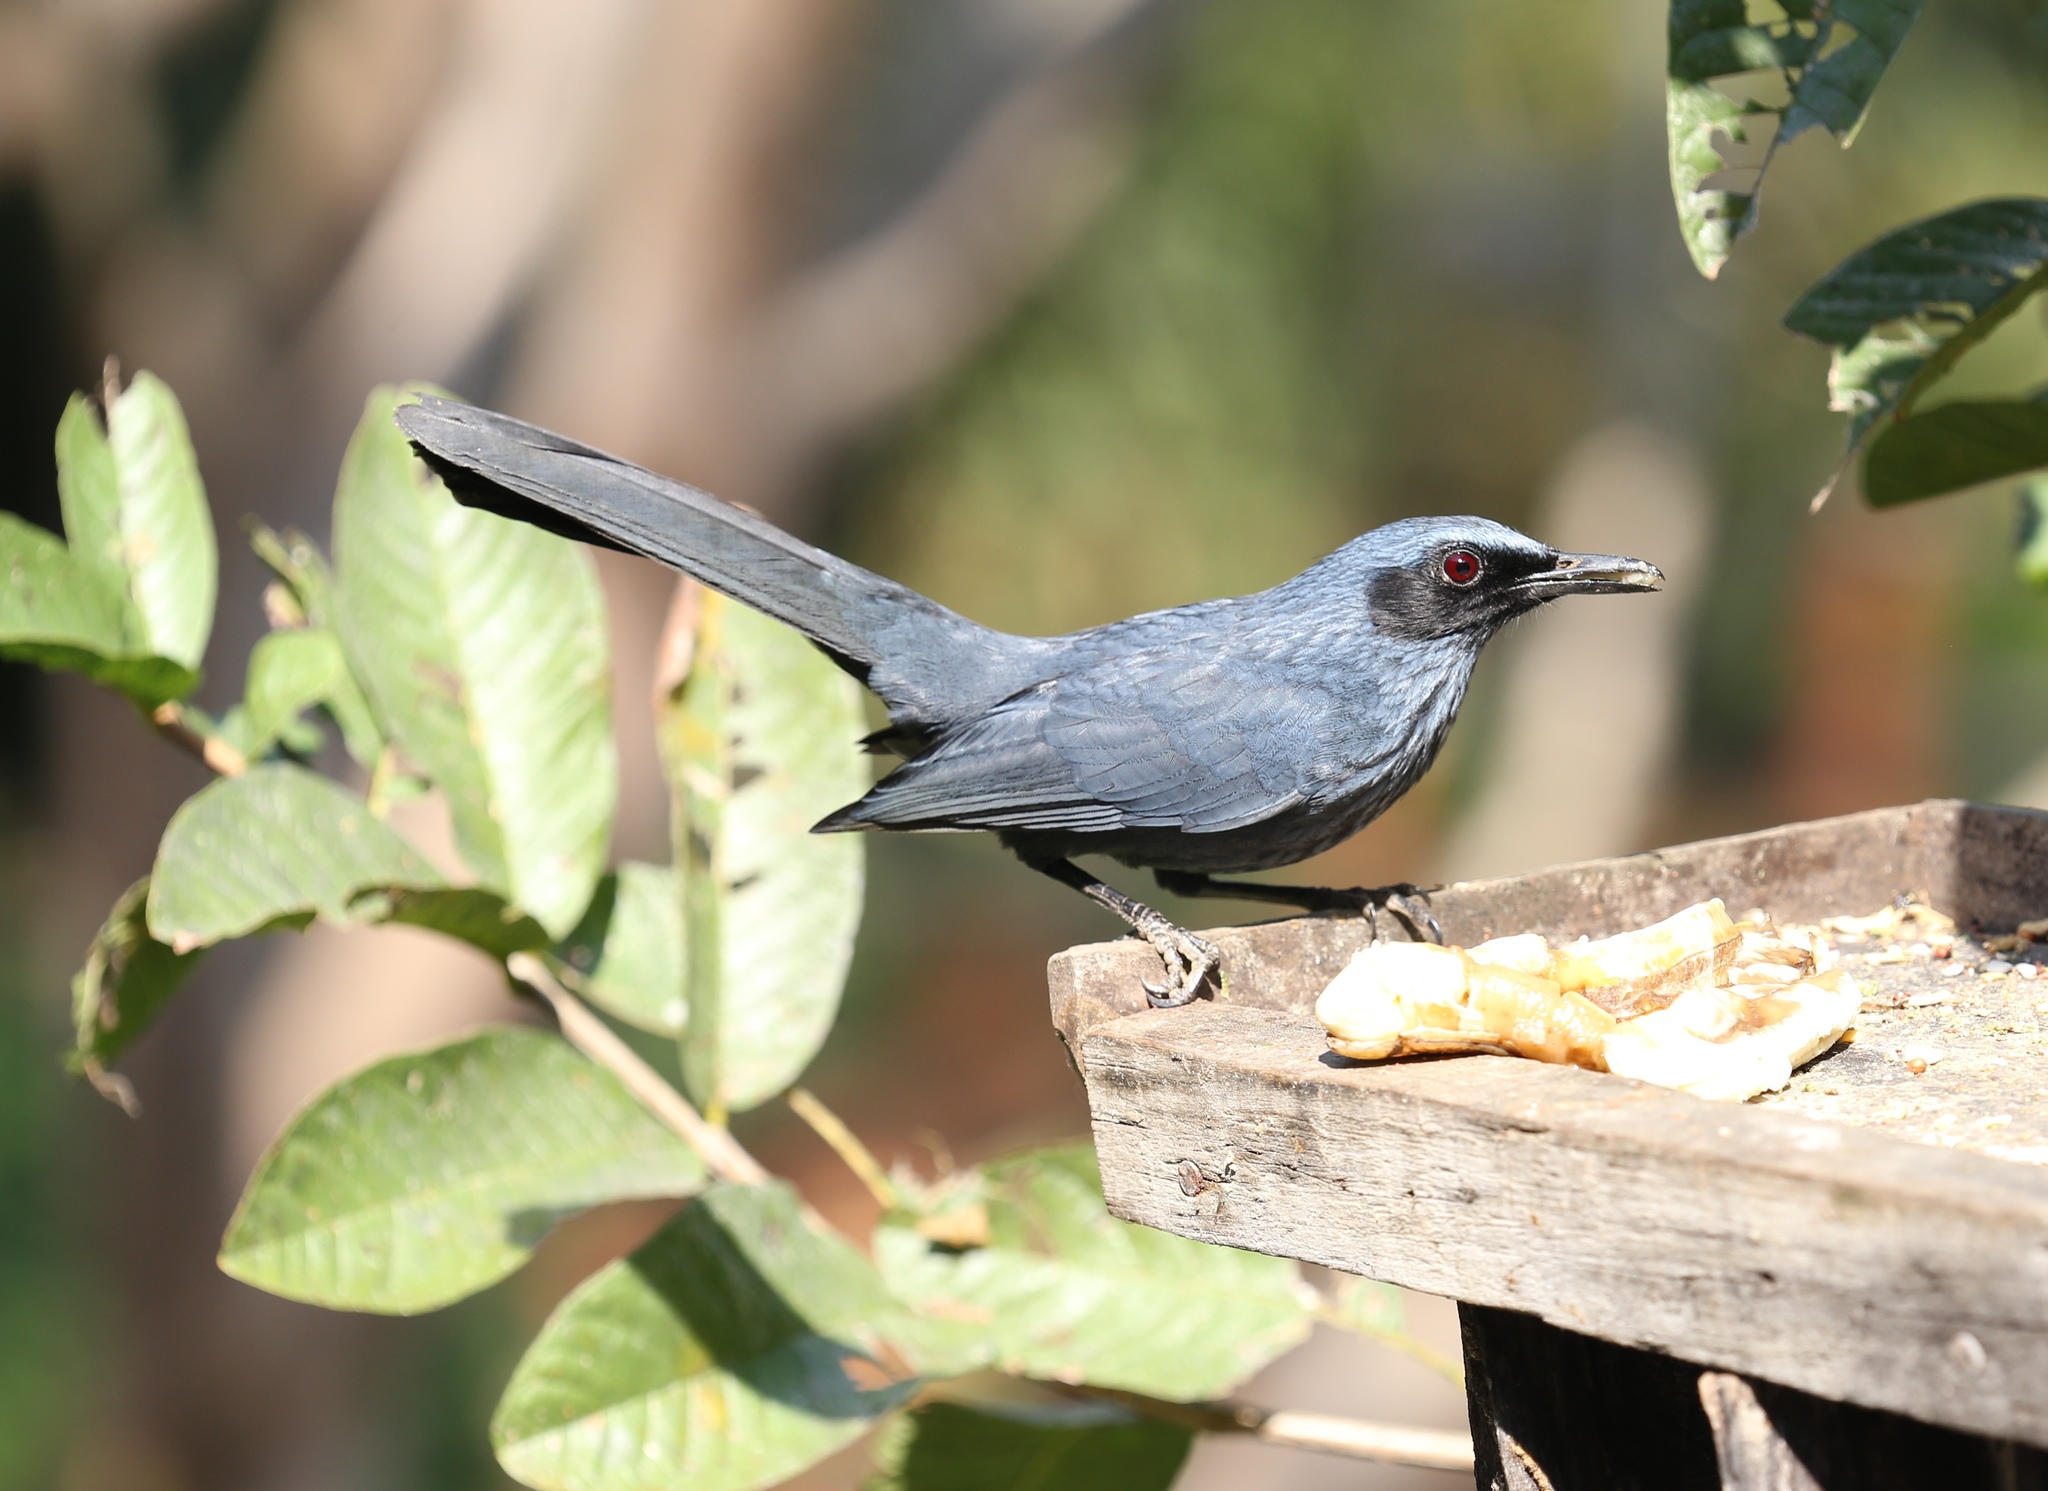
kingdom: Animalia
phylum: Chordata
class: Aves
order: Passeriformes
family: Mimidae
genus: Melanotis
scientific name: Melanotis caerulescens
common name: Blue mockingbird
